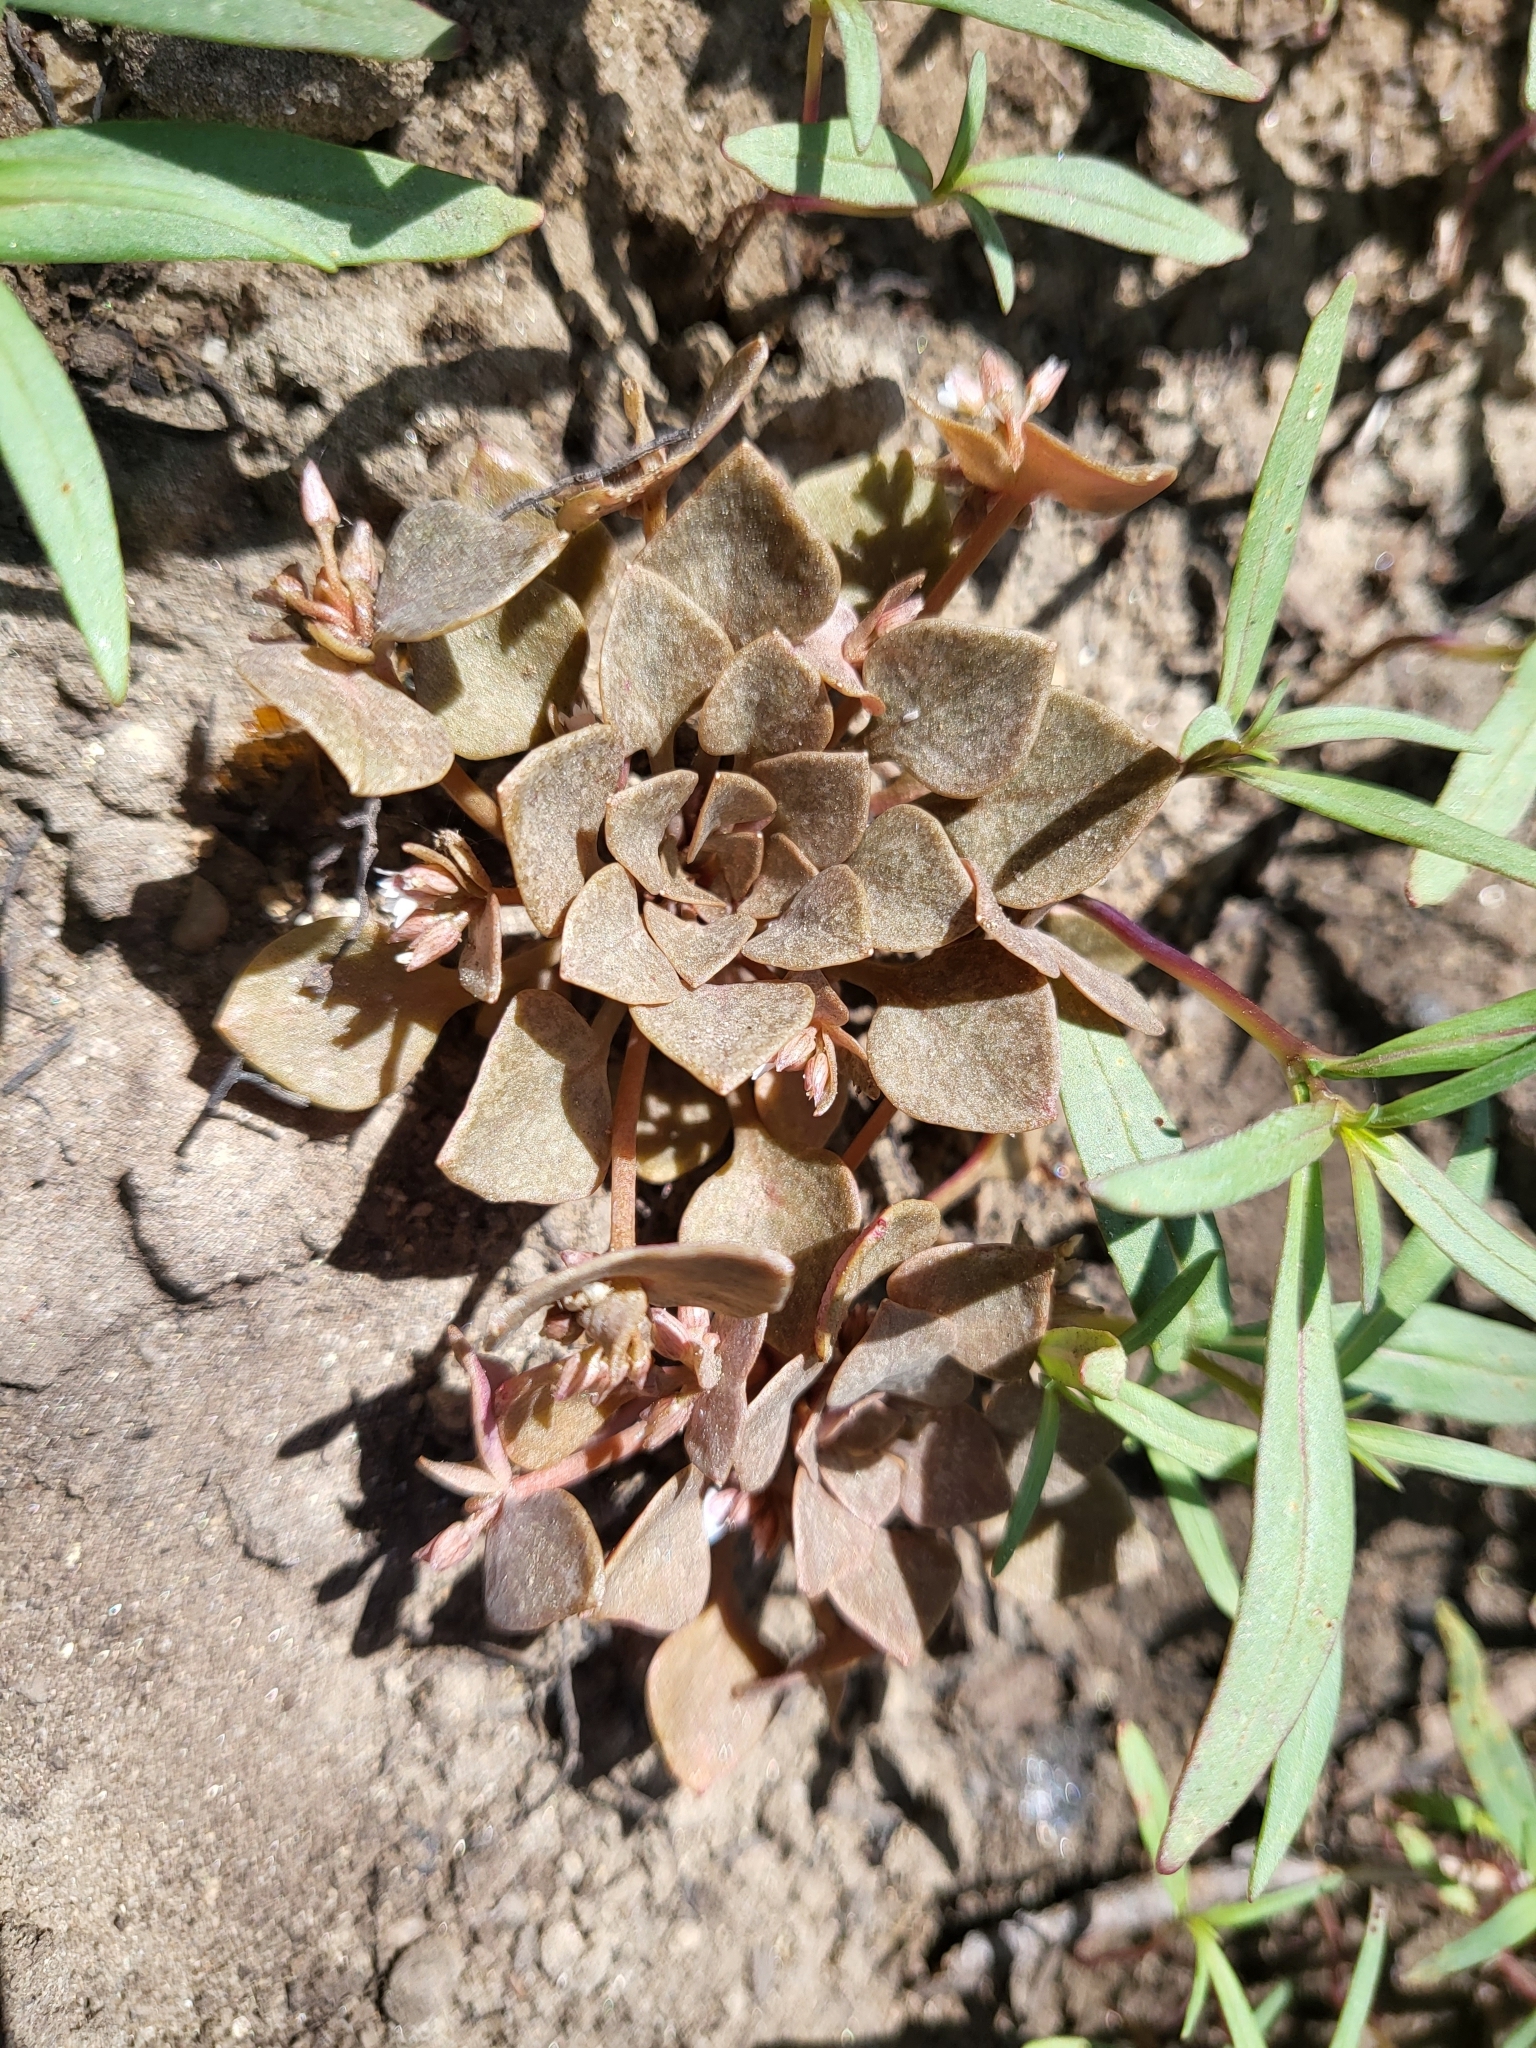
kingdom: Plantae
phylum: Tracheophyta
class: Magnoliopsida
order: Caryophyllales
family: Montiaceae
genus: Claytonia
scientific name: Claytonia rubra
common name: Erubescent miner's-lettuce
